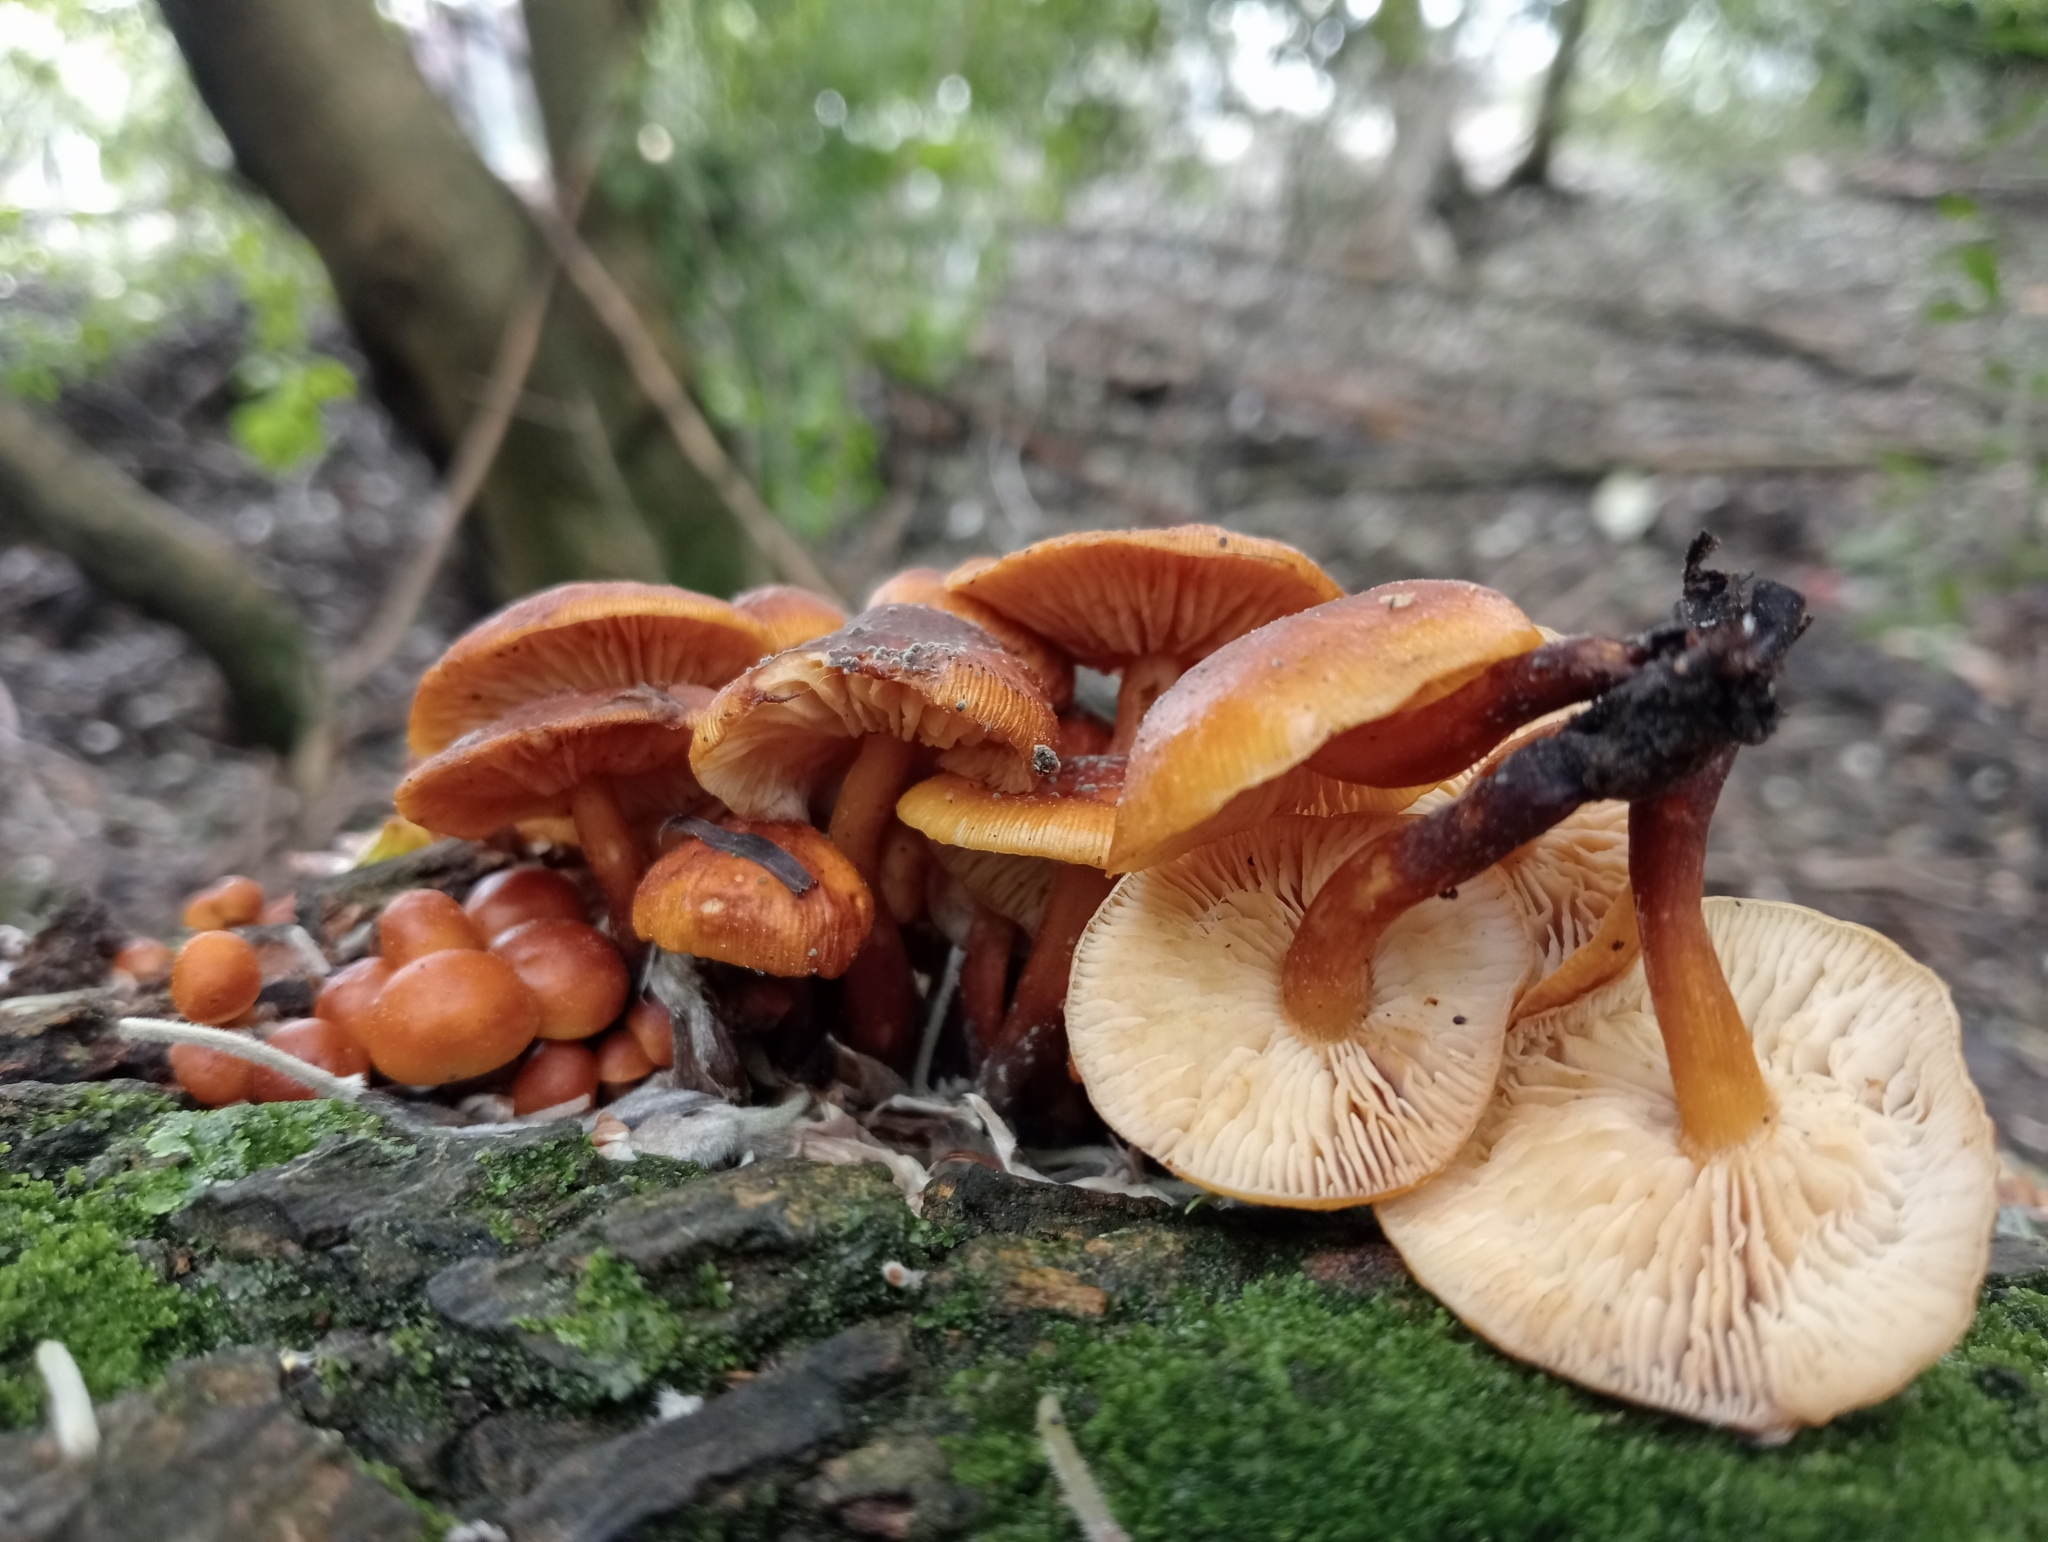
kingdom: Fungi
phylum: Basidiomycota
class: Agaricomycetes
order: Agaricales
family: Physalacriaceae
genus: Flammulina
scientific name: Flammulina velutipes
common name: Velvet shank
